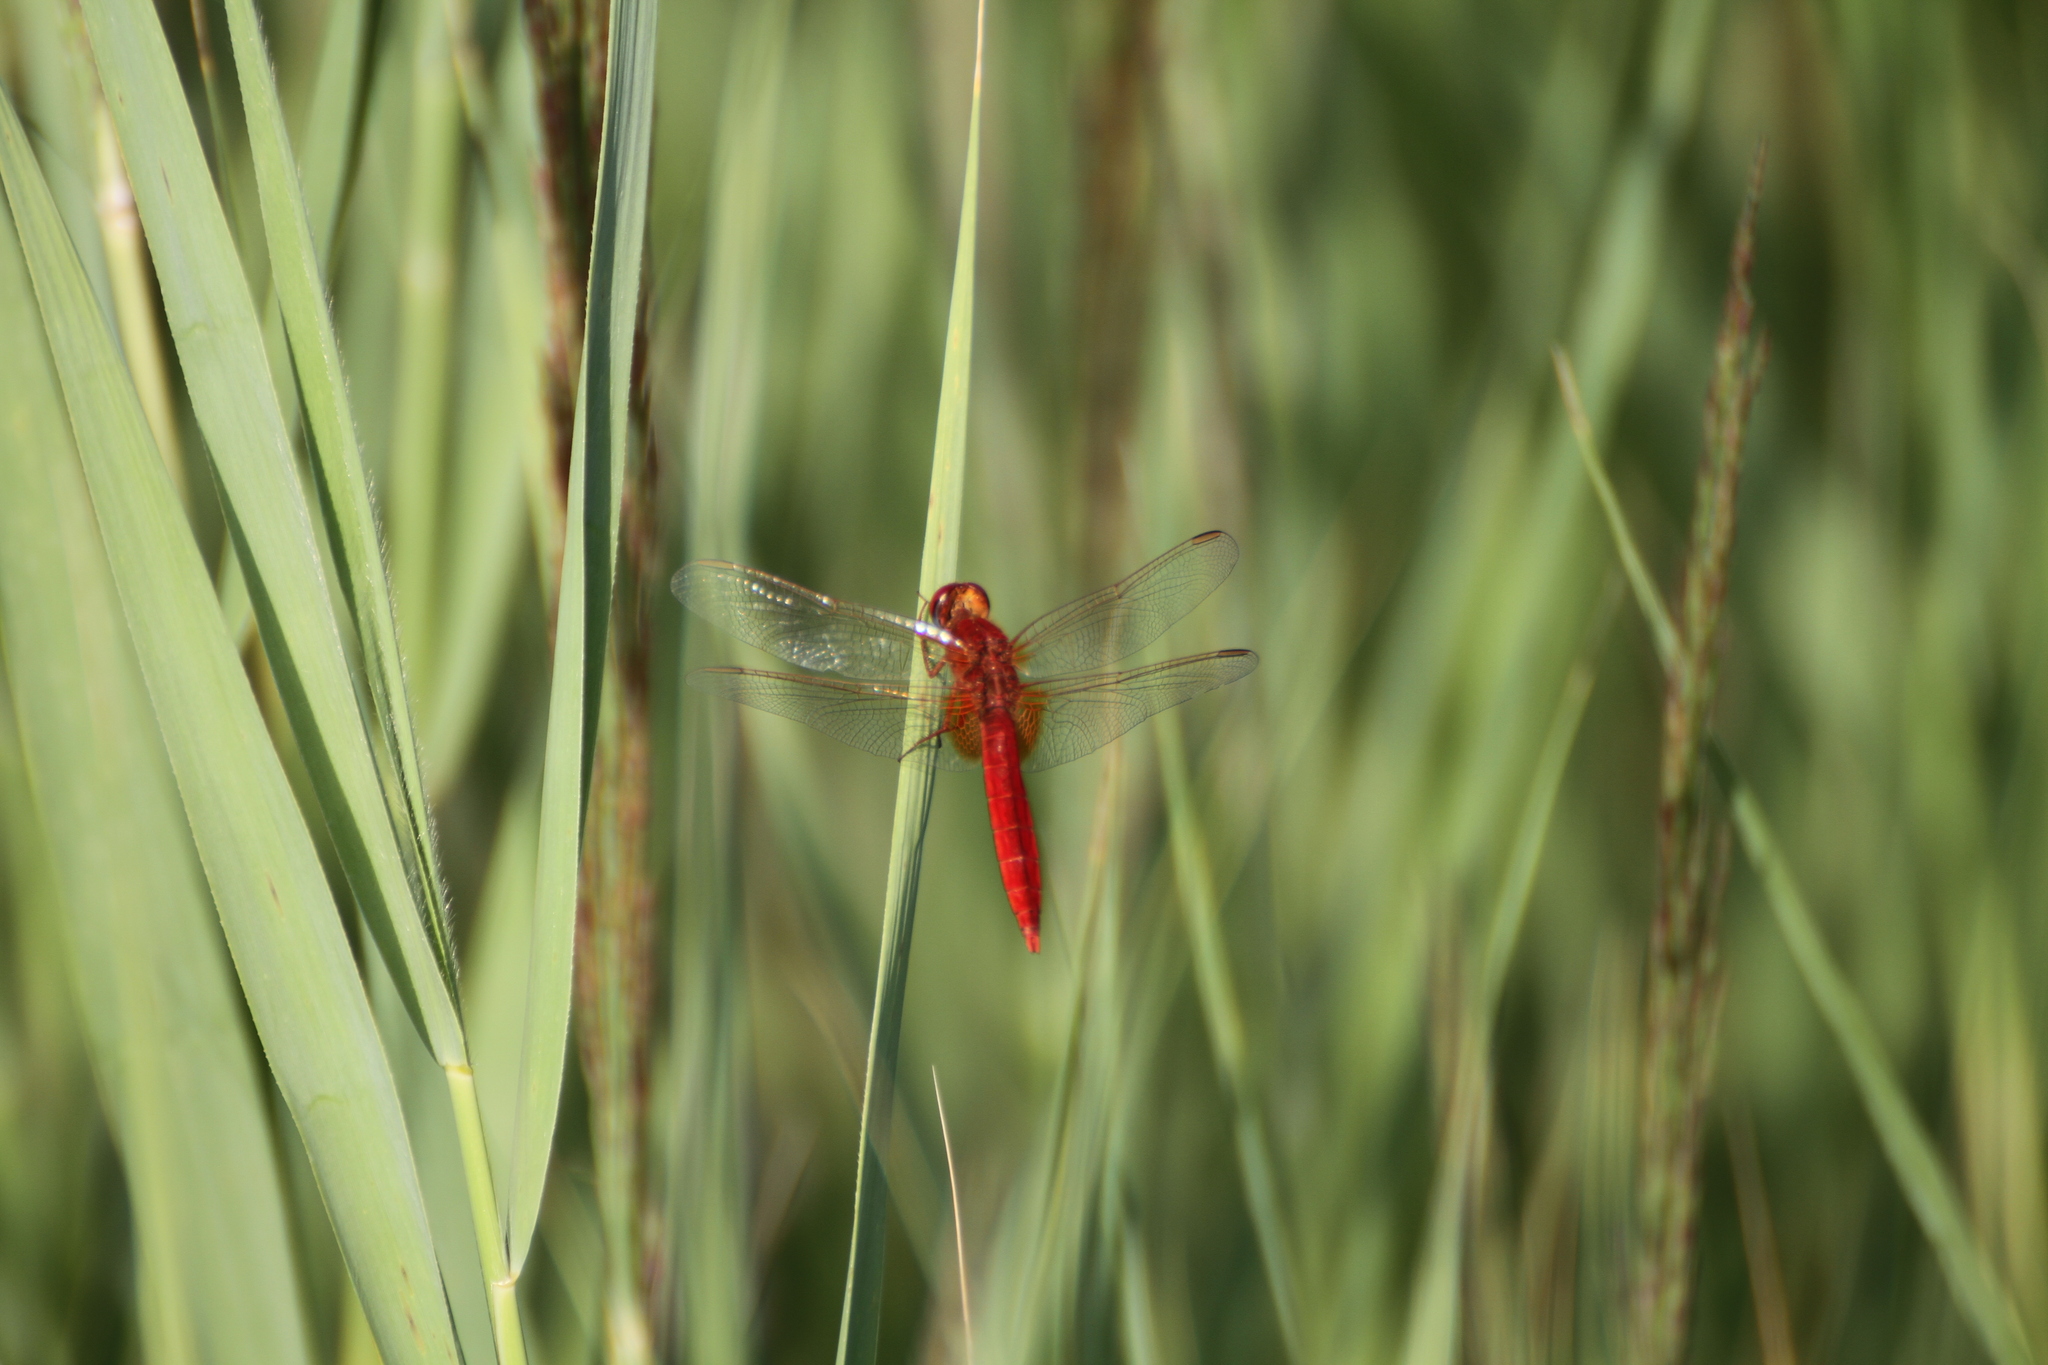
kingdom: Animalia
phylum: Arthropoda
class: Insecta
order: Odonata
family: Libellulidae
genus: Crocothemis
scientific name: Crocothemis erythraea
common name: Scarlet dragonfly
